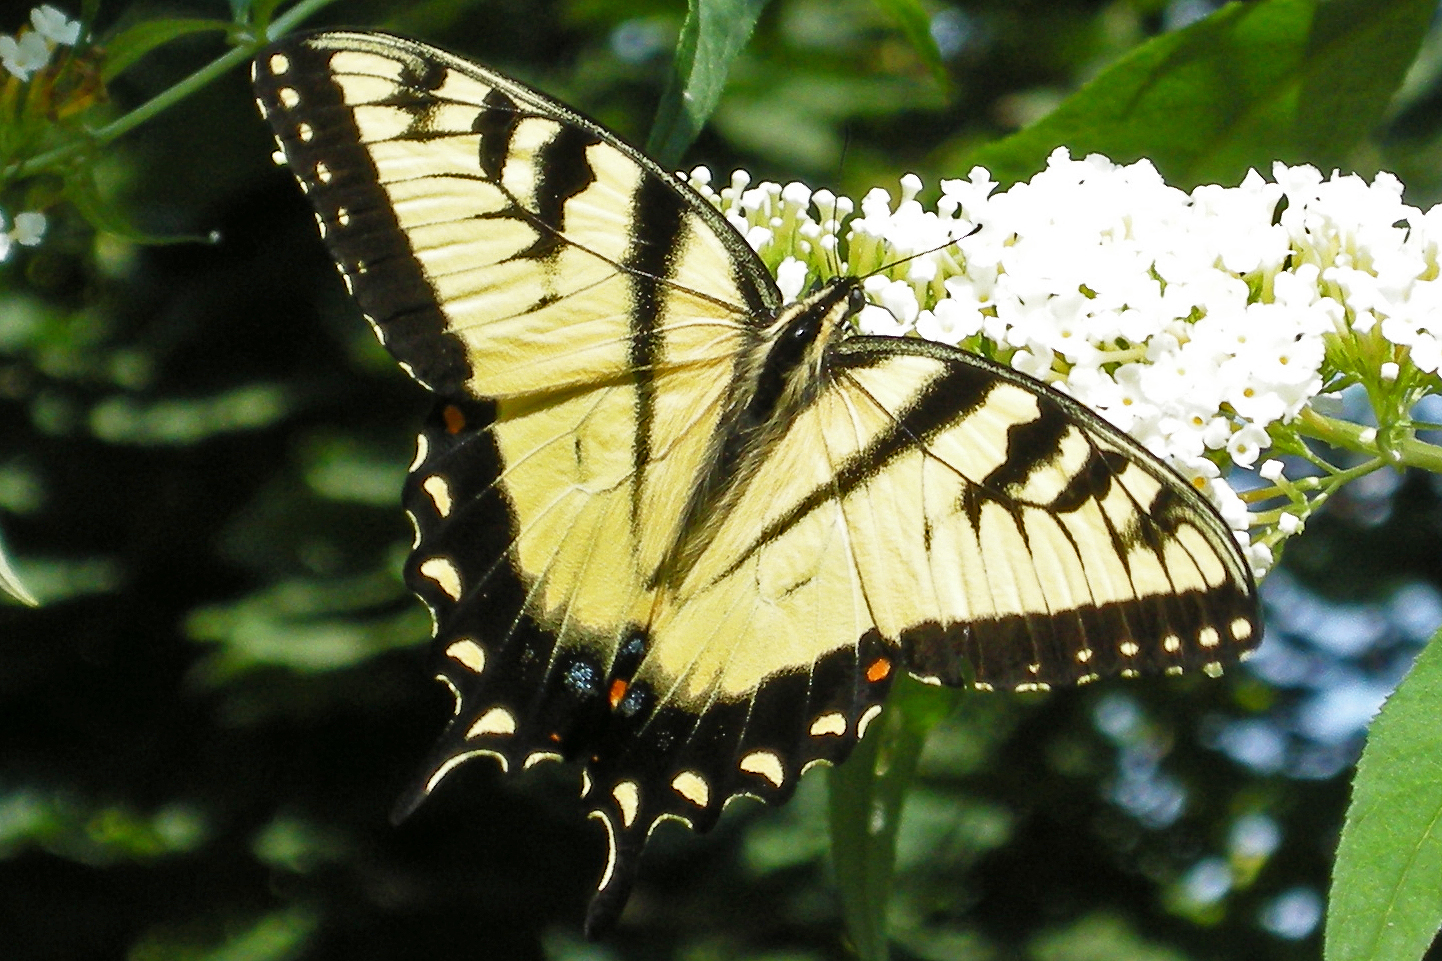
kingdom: Animalia
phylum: Arthropoda
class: Insecta
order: Lepidoptera
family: Papilionidae
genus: Papilio
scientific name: Papilio glaucus
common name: Tiger swallowtail
